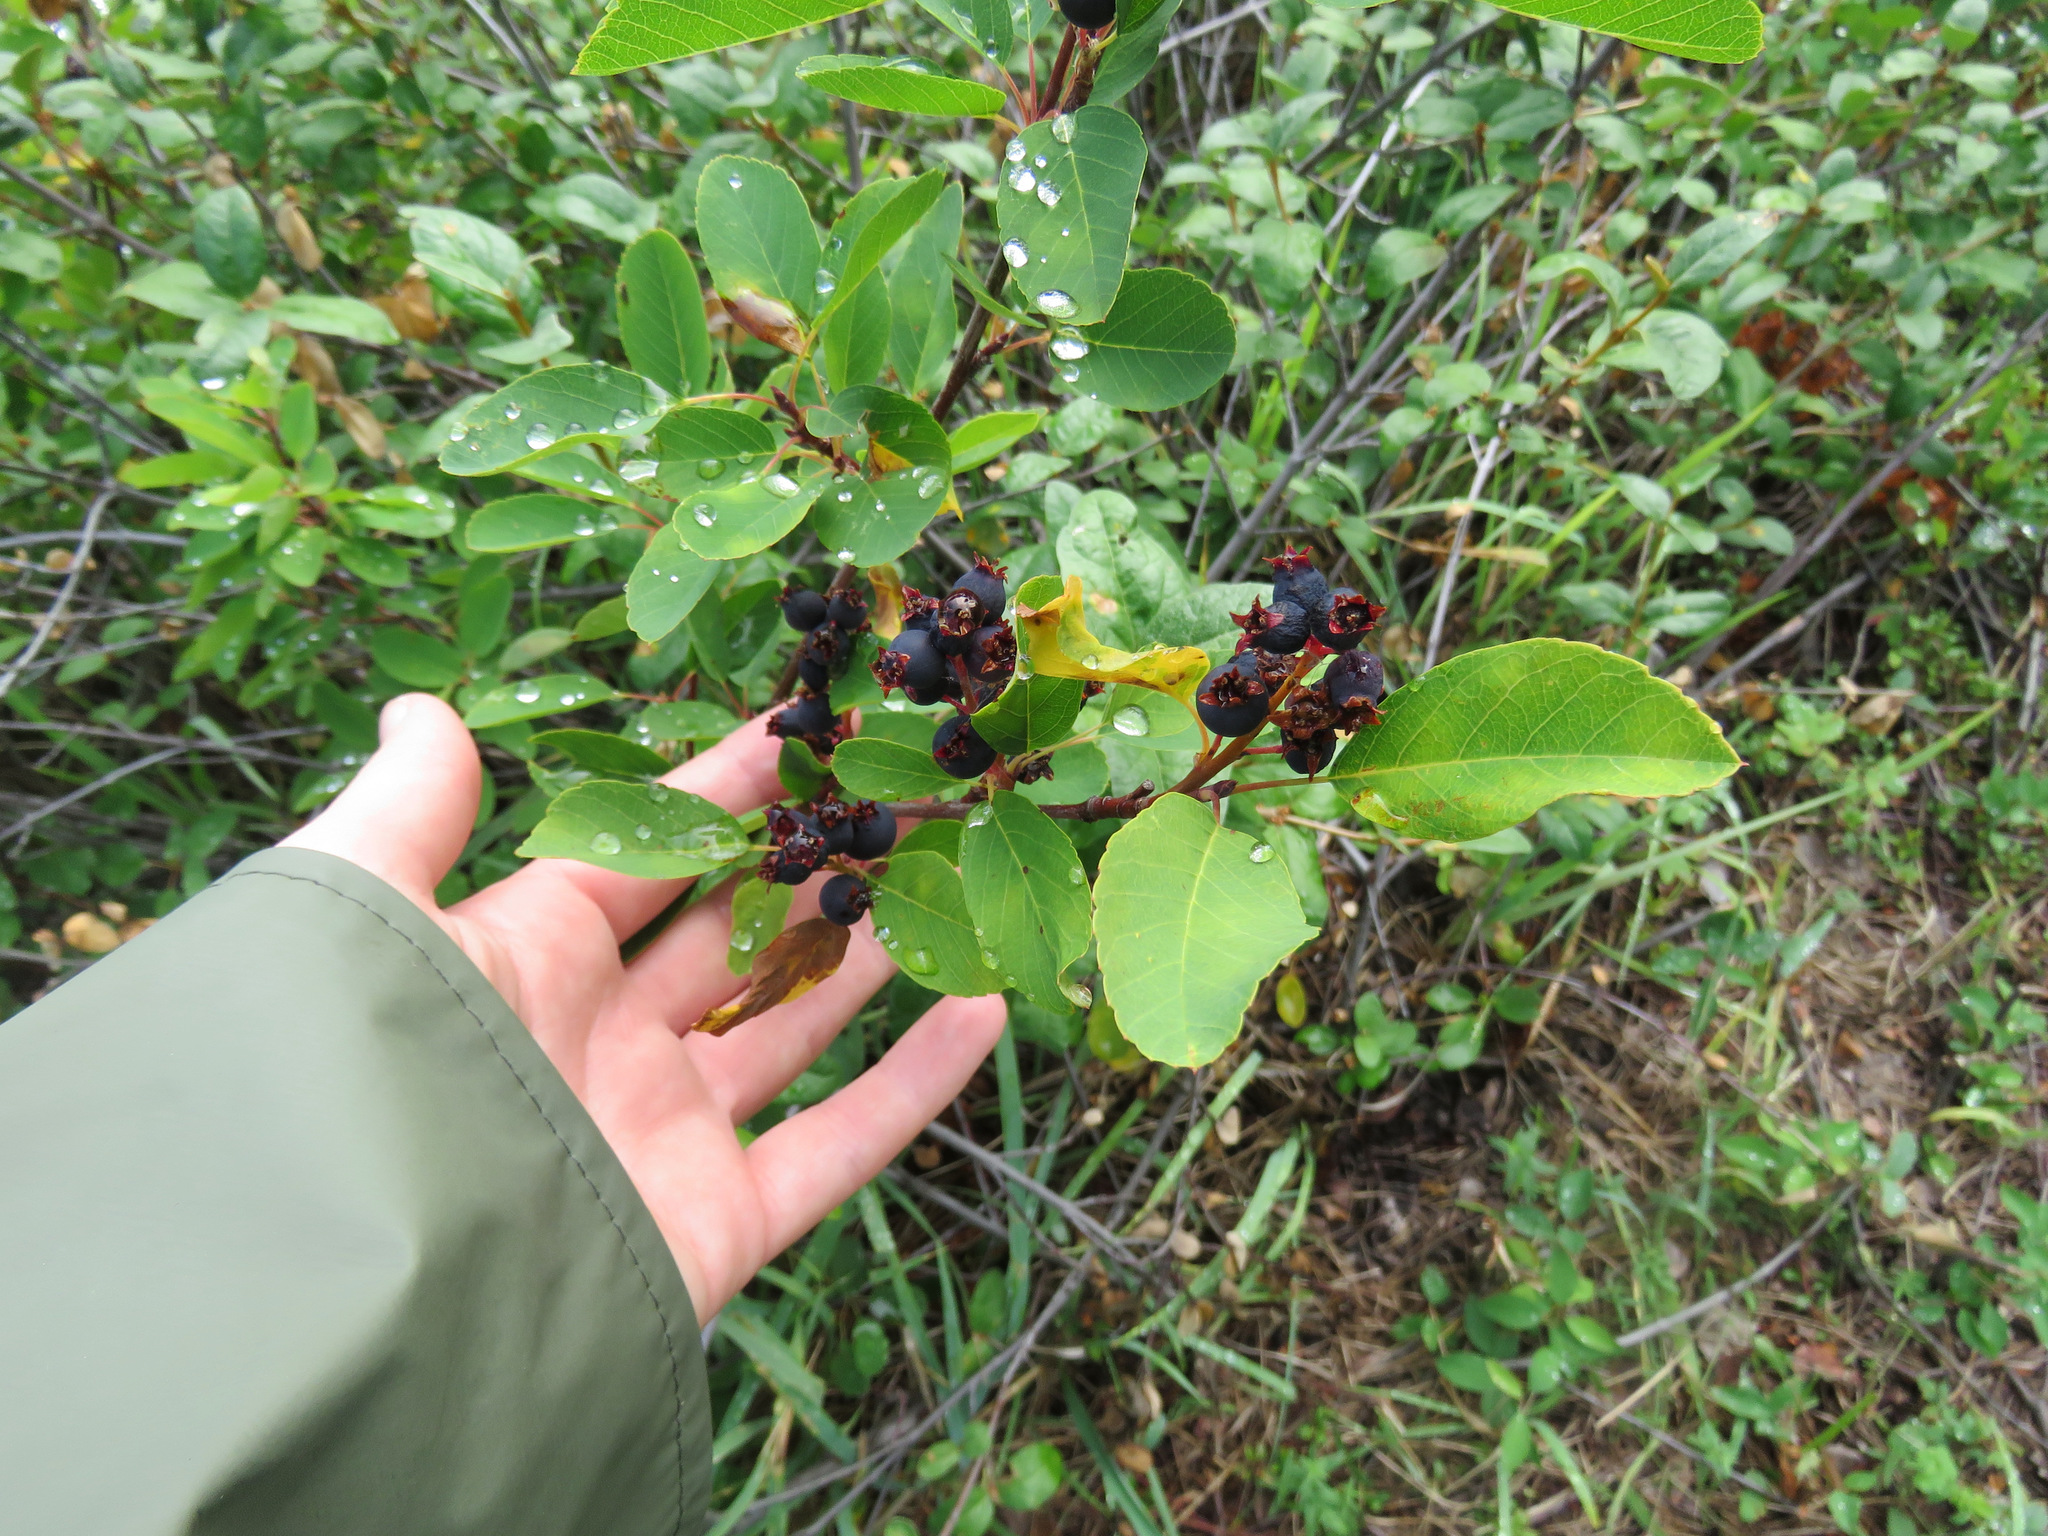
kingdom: Plantae
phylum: Tracheophyta
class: Magnoliopsida
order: Rosales
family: Rosaceae
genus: Amelanchier
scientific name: Amelanchier alnifolia
